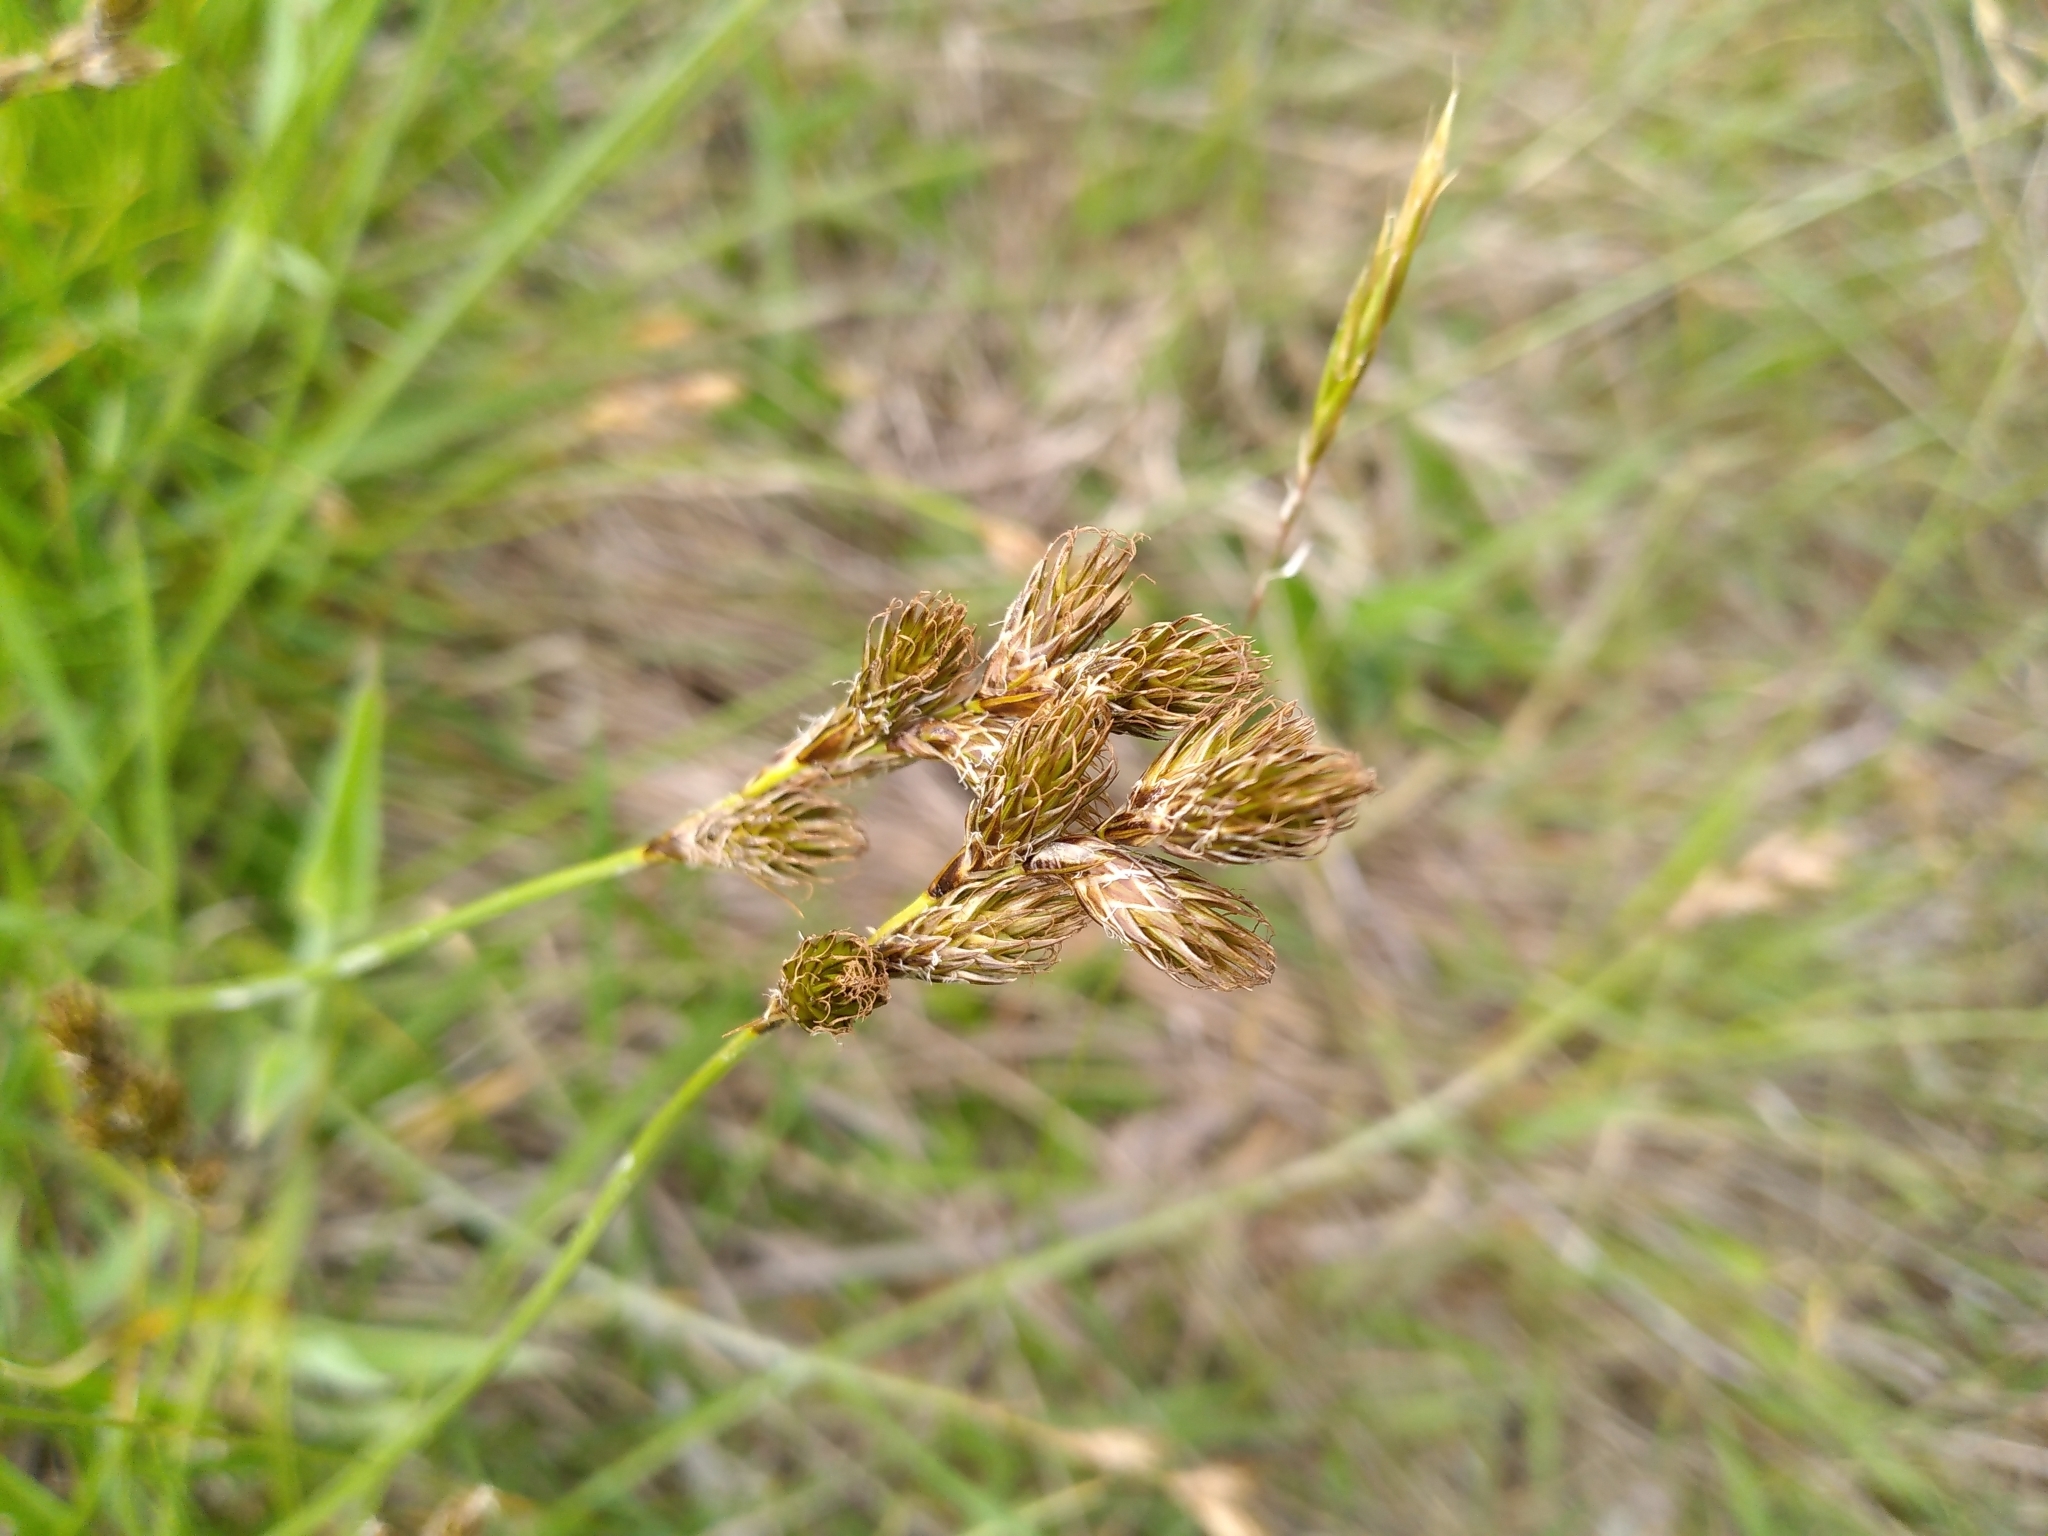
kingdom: Plantae
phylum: Tracheophyta
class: Liliopsida
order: Poales
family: Cyperaceae
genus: Carex
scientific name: Carex leporina
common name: Oval sedge
